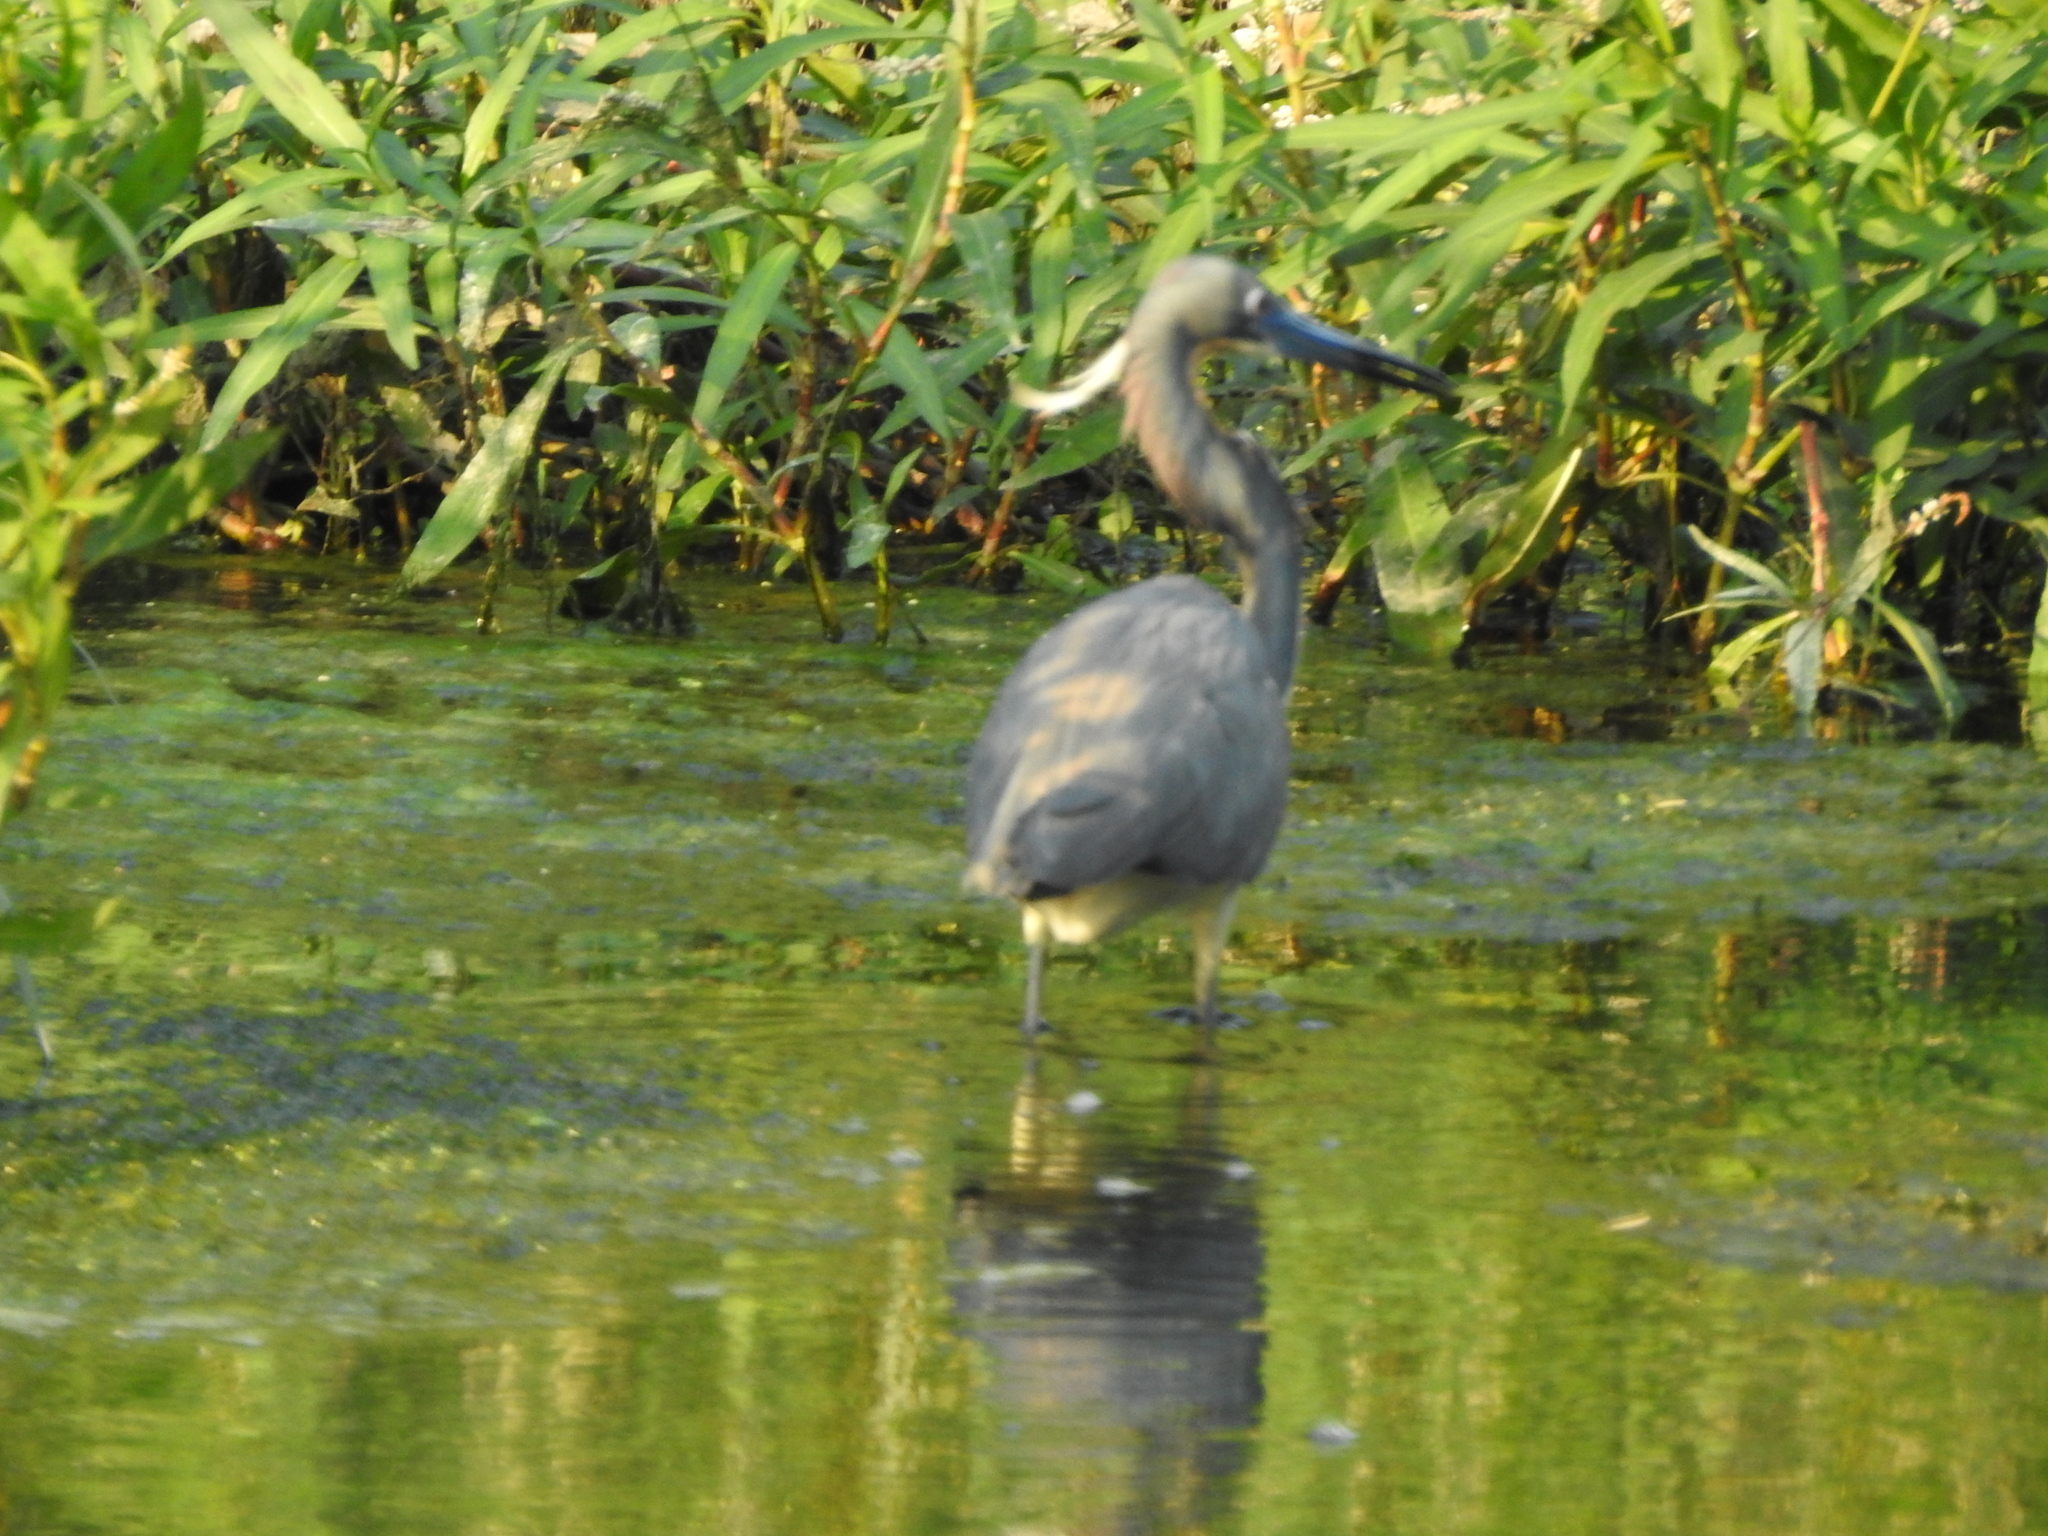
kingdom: Animalia
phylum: Chordata
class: Aves
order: Pelecaniformes
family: Ardeidae
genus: Egretta
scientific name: Egretta tricolor
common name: Tricolored heron
